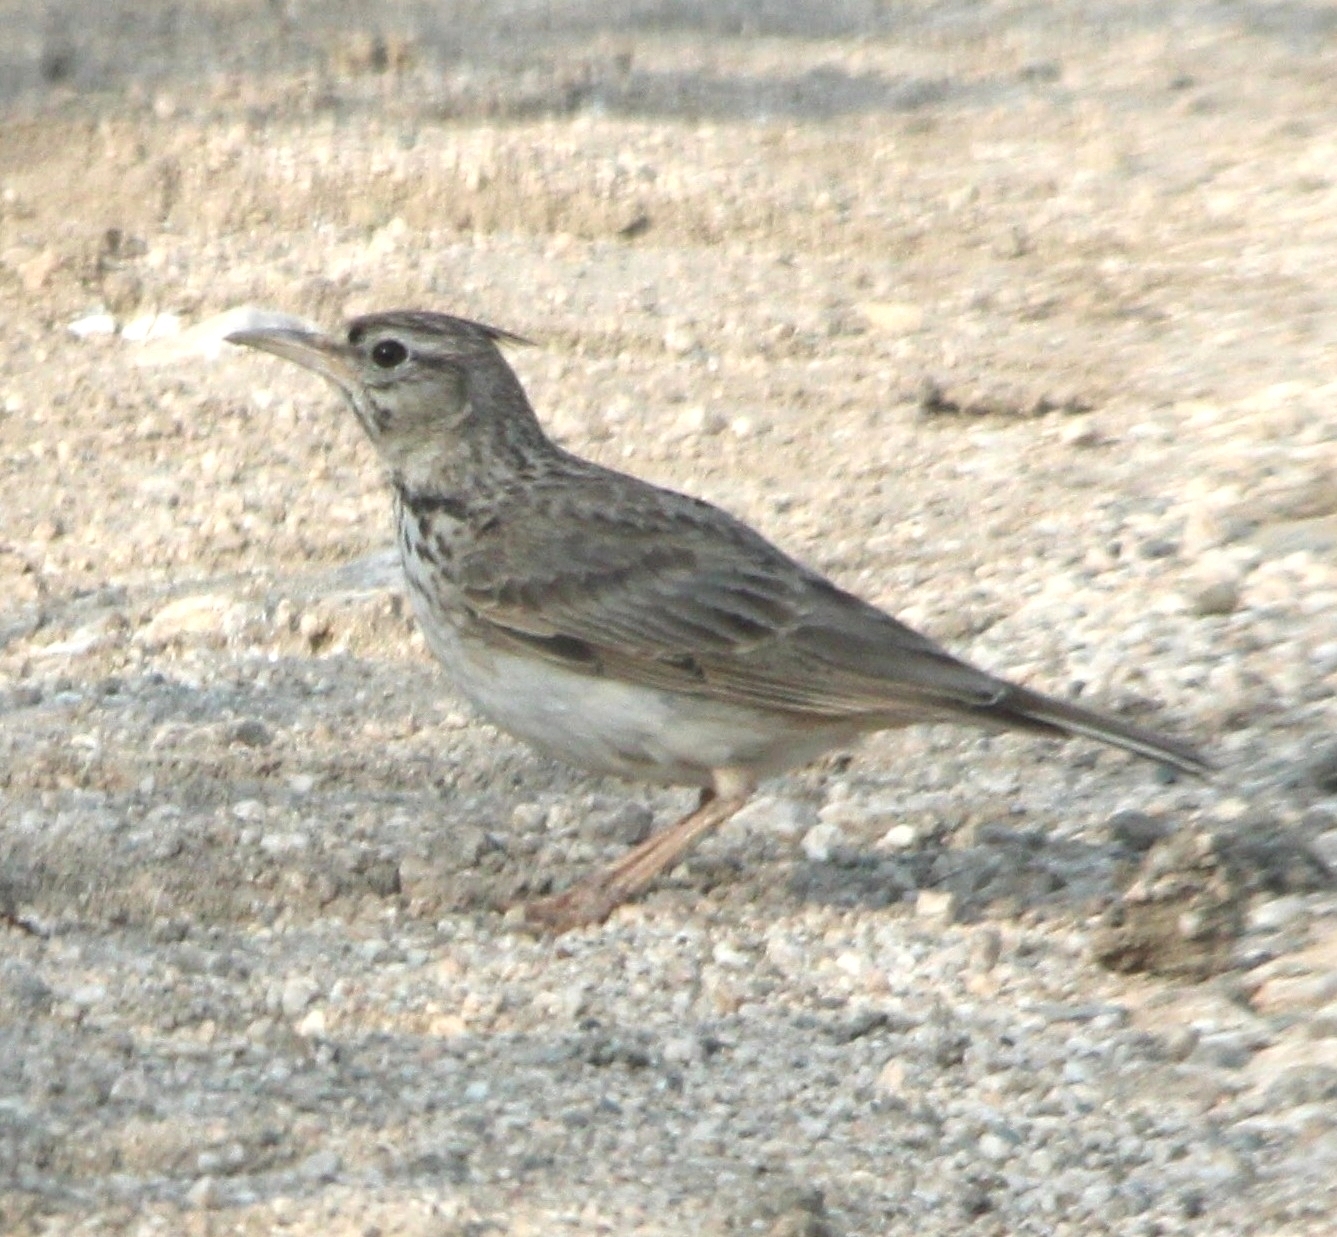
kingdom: Animalia
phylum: Chordata
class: Aves
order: Passeriformes
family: Alaudidae
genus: Galerida
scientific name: Galerida cristata
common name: Crested lark
